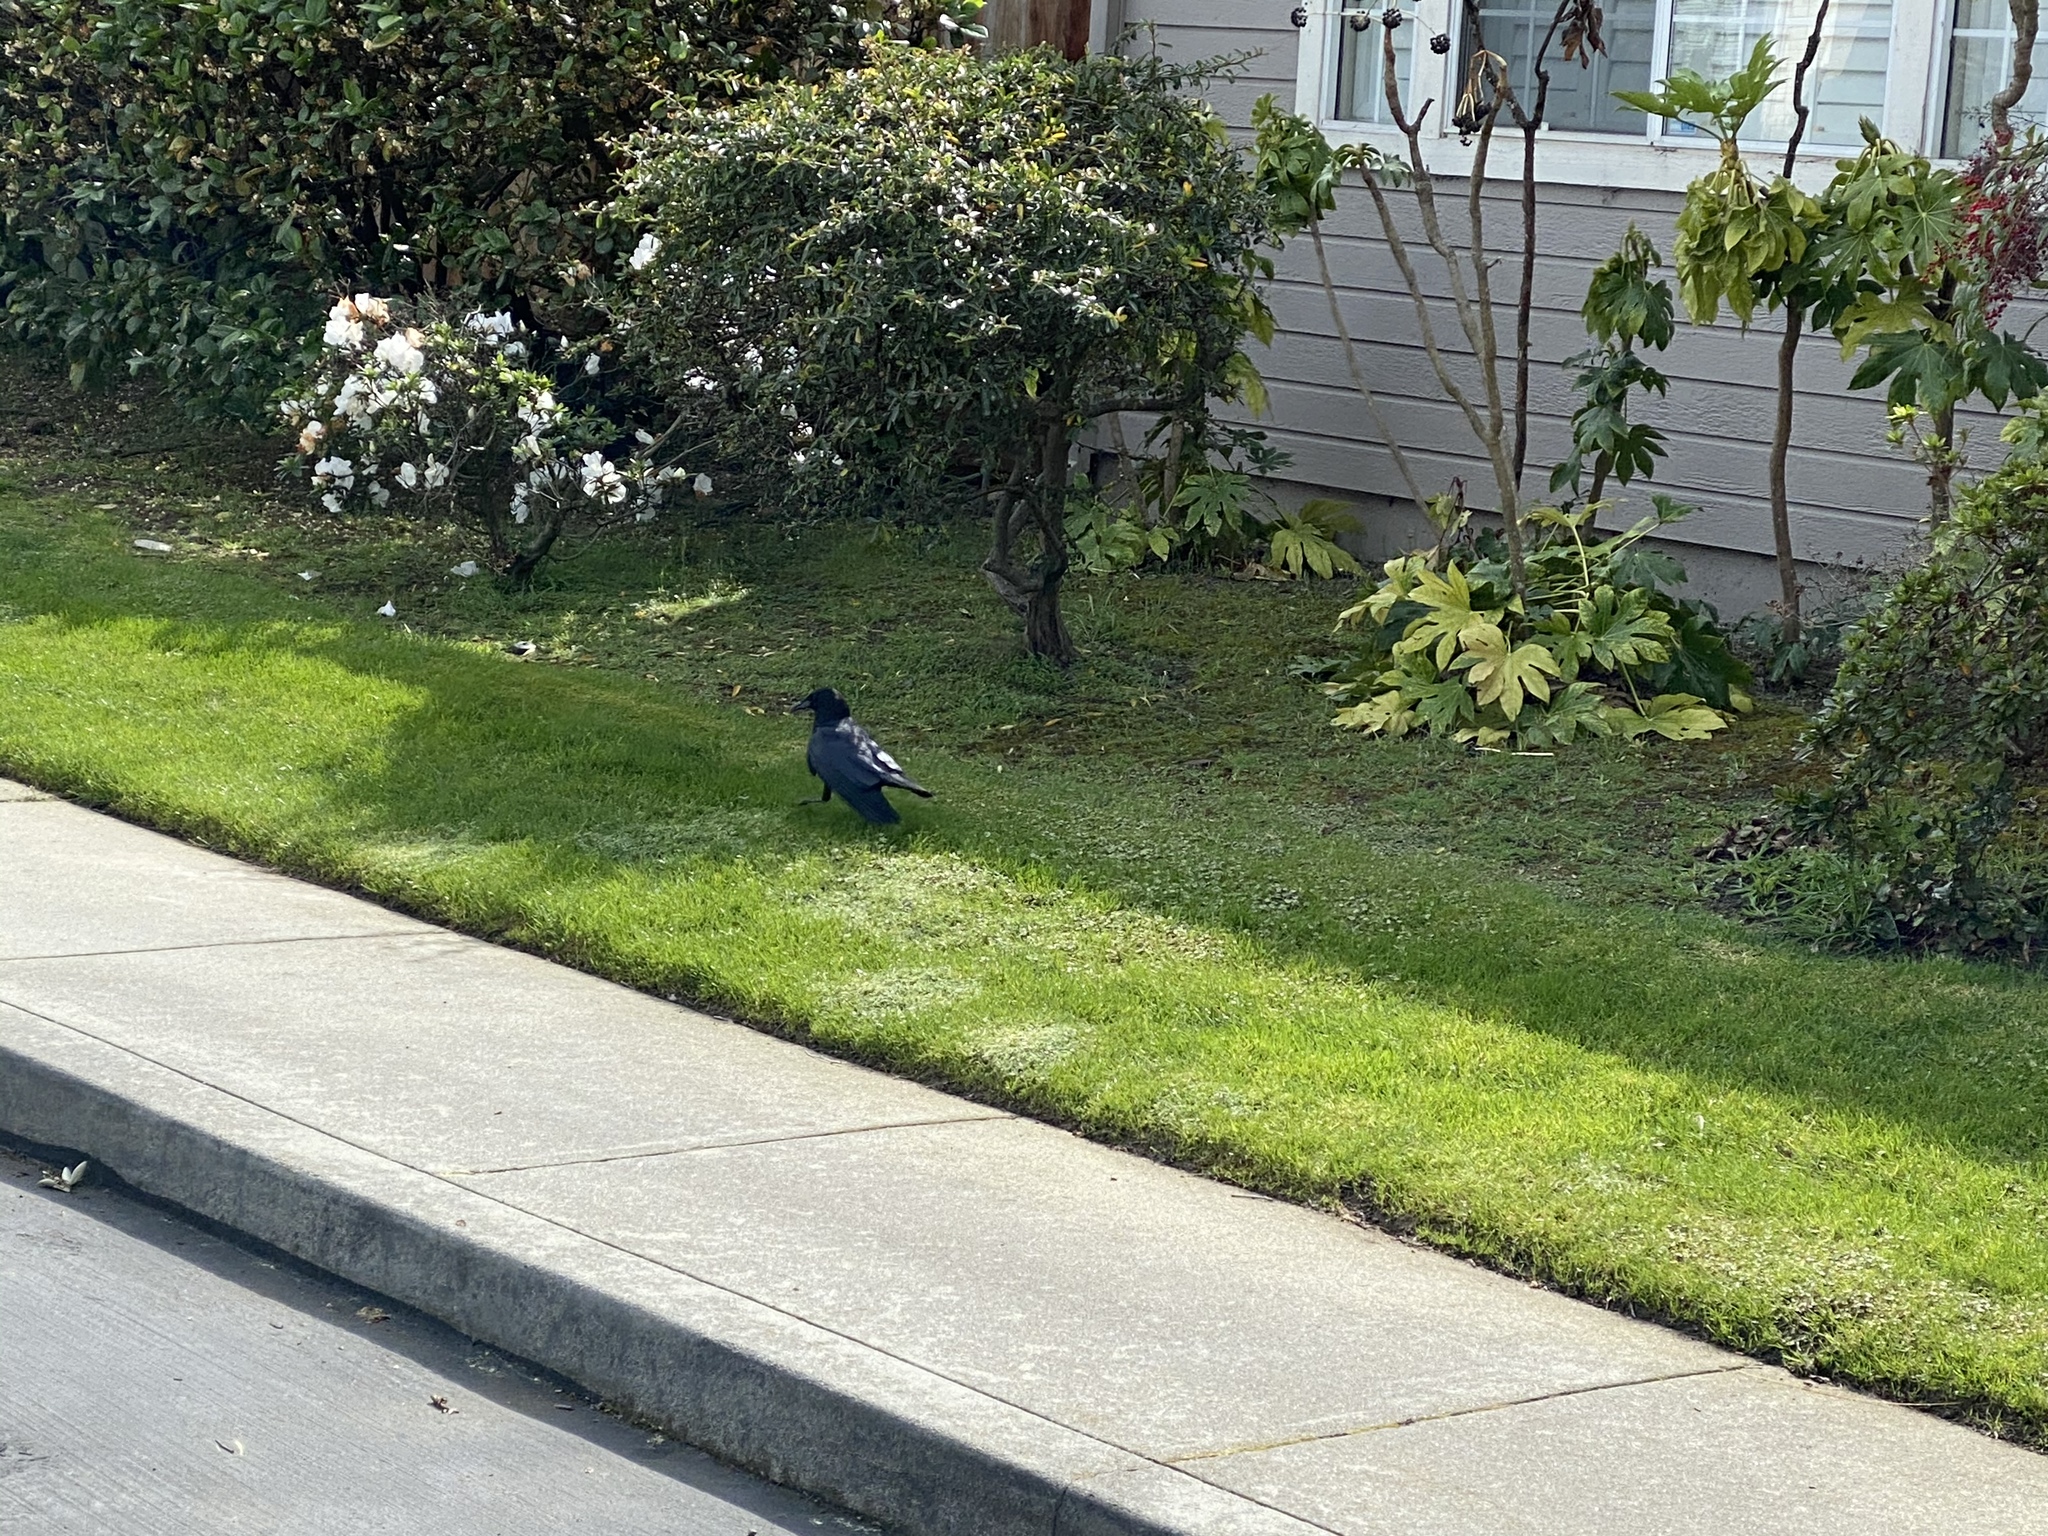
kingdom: Animalia
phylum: Chordata
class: Aves
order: Passeriformes
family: Corvidae
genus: Corvus
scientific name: Corvus brachyrhynchos
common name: American crow
